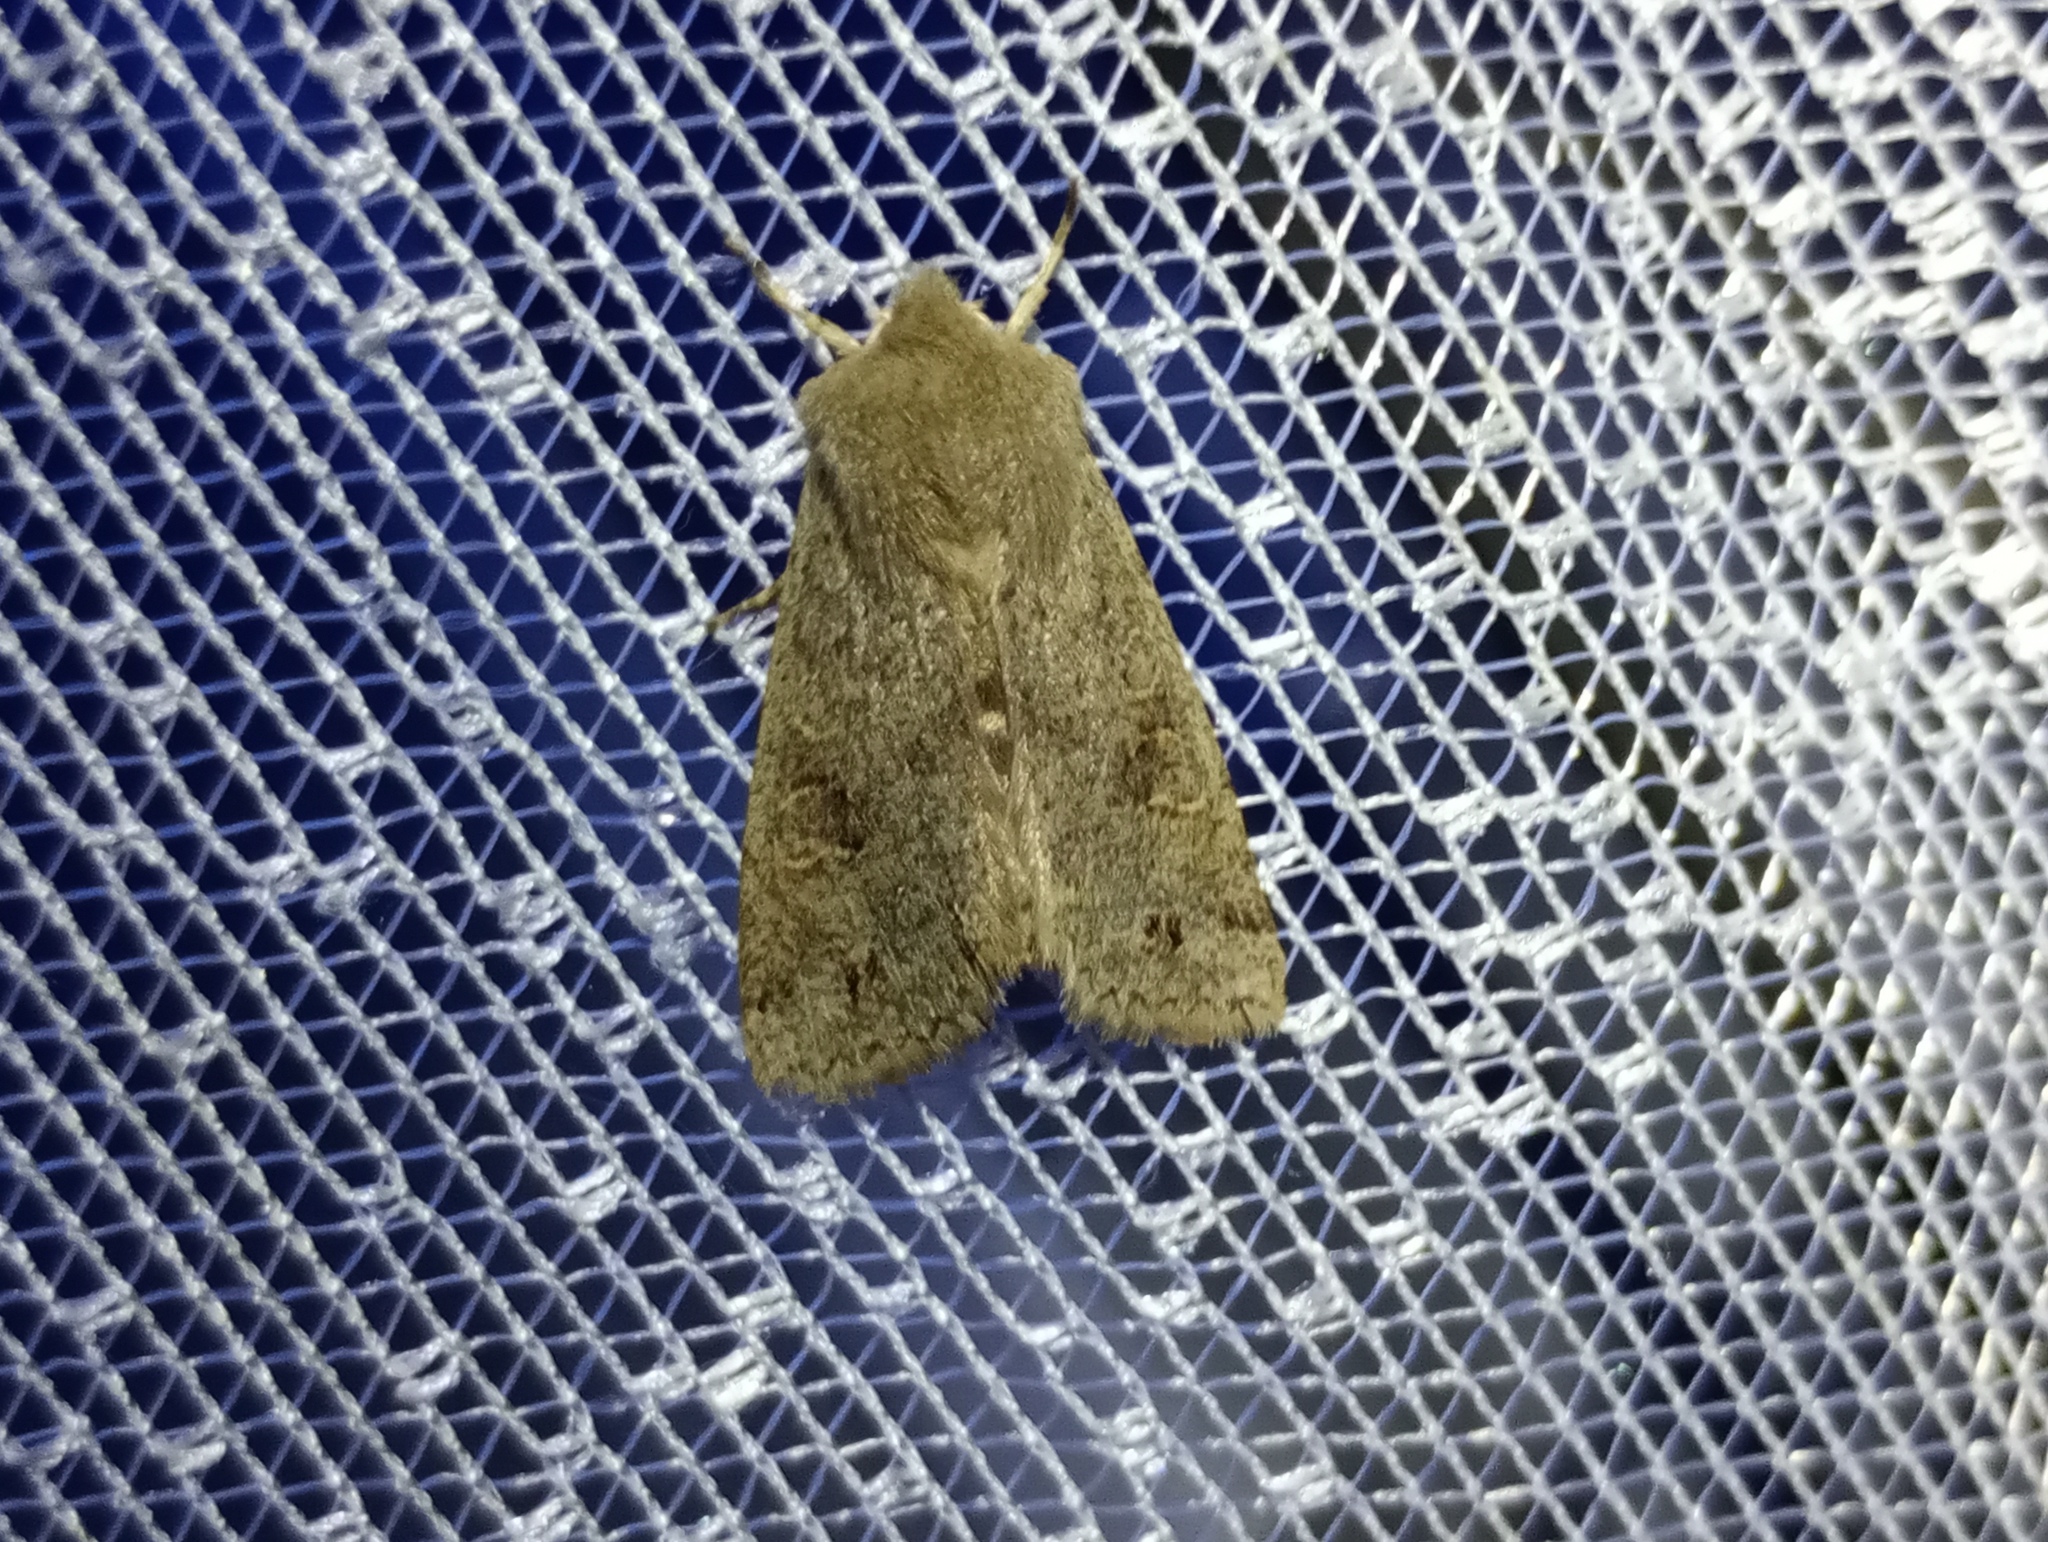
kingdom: Animalia
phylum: Arthropoda
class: Insecta
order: Lepidoptera
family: Noctuidae
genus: Anorthoa
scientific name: Anorthoa munda
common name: Twin-spotted quaker
